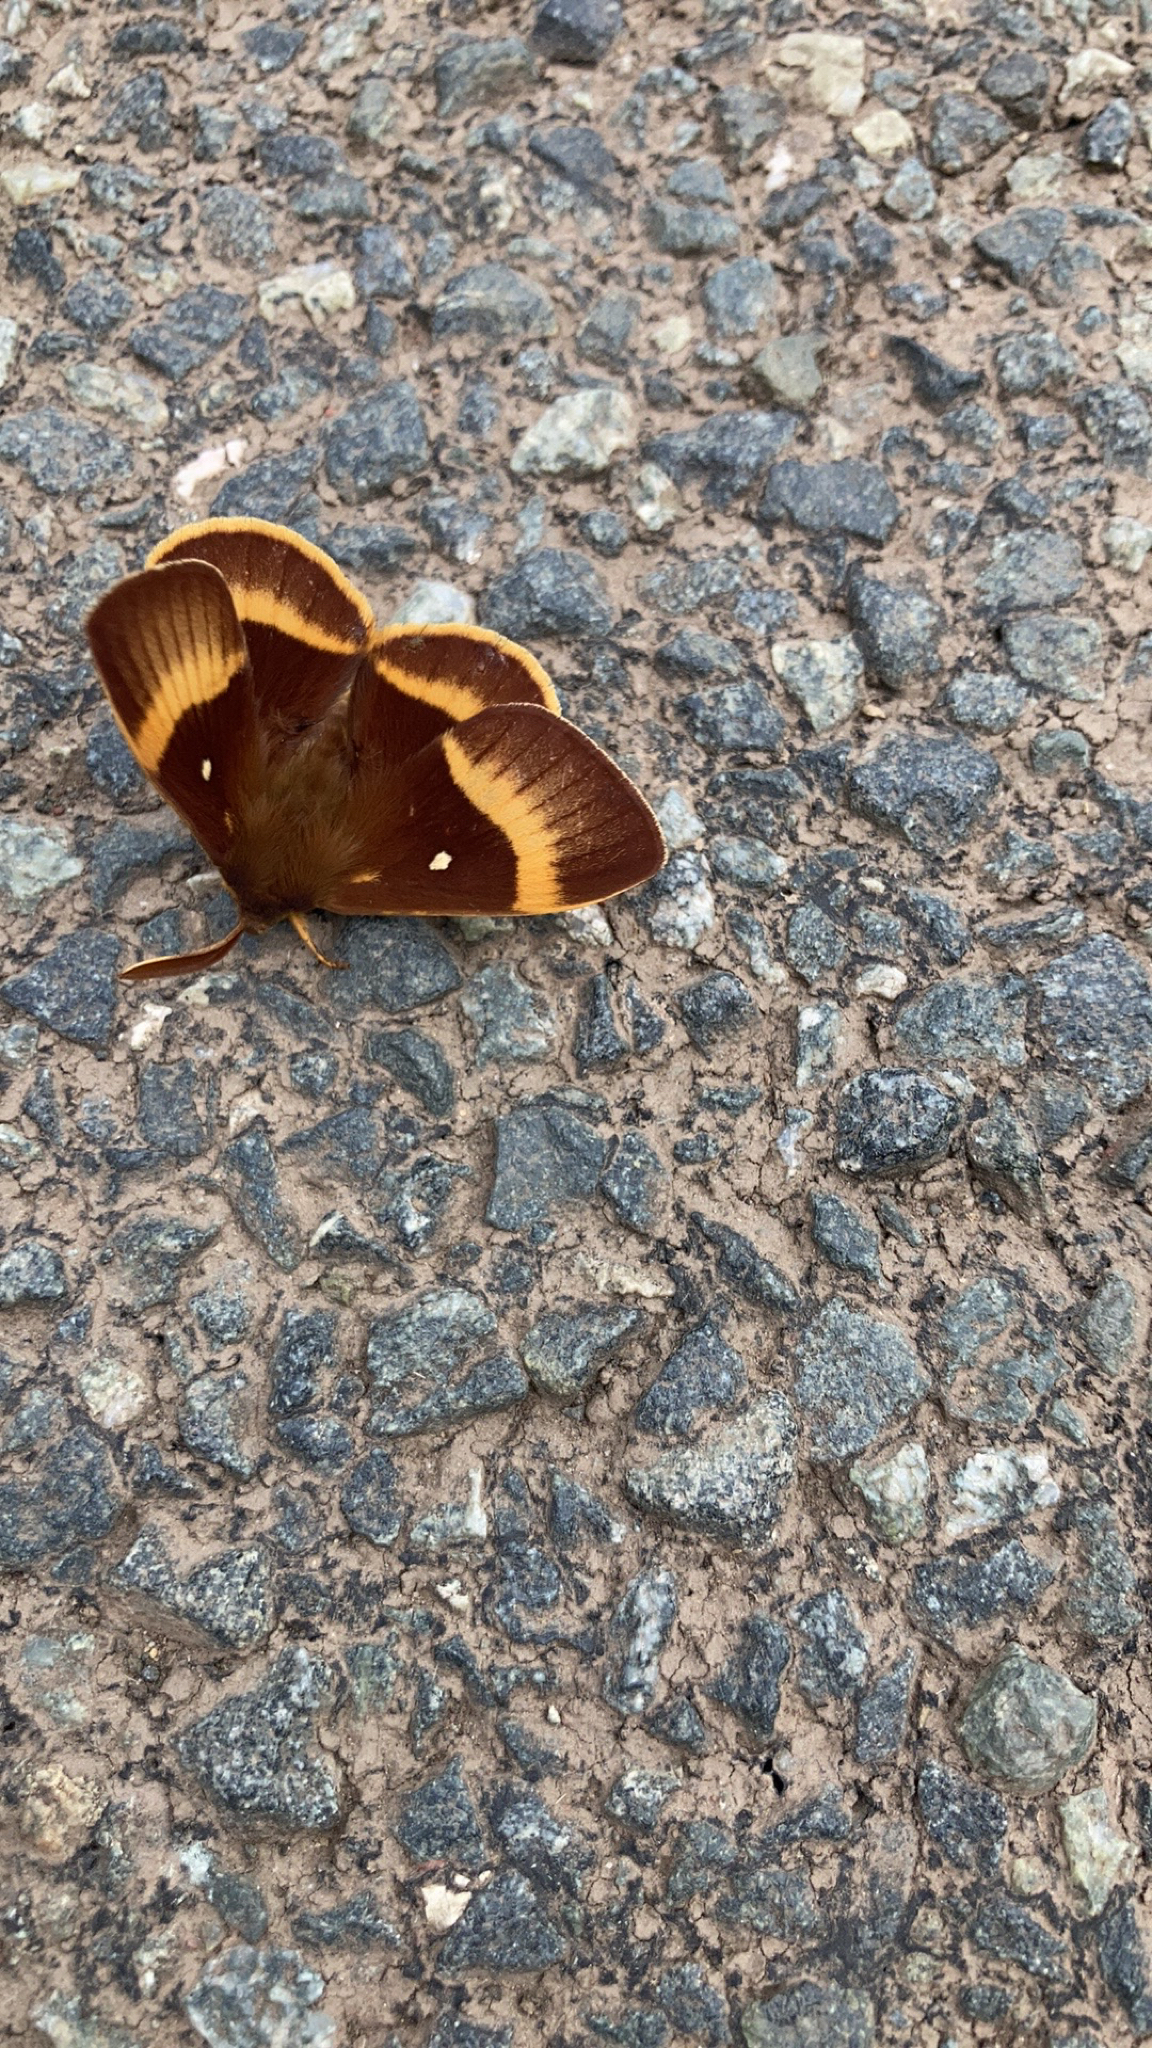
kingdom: Animalia
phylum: Arthropoda
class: Insecta
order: Lepidoptera
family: Lasiocampidae
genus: Lasiocampa
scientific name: Lasiocampa quercus
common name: Oak eggar
